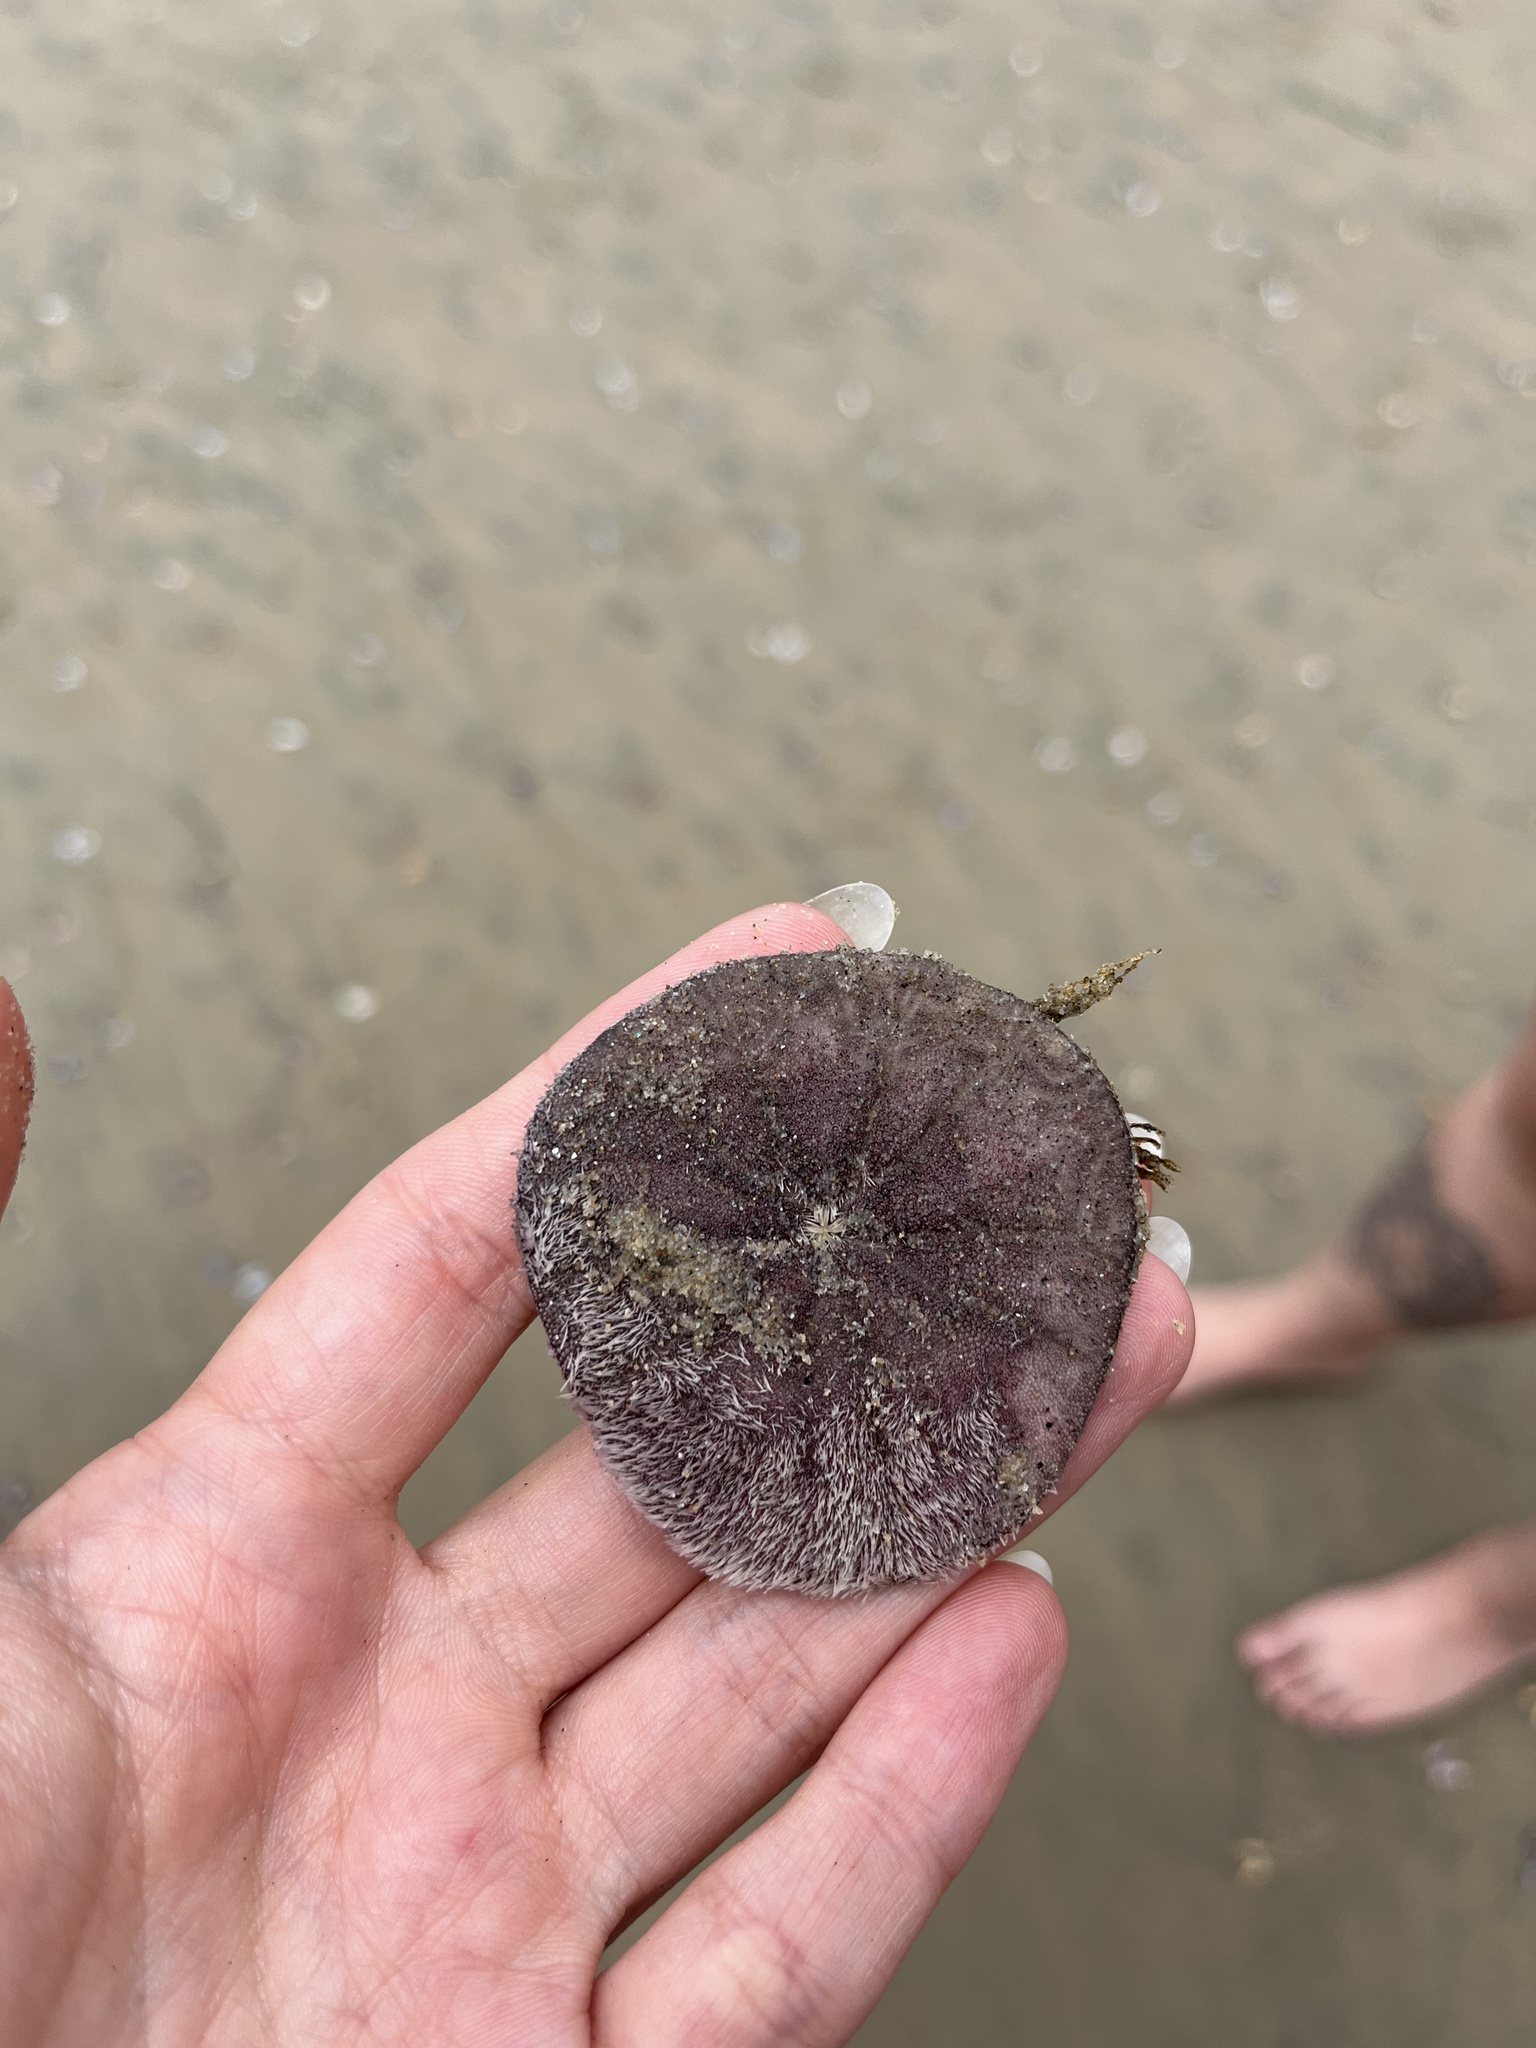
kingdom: Animalia
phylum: Echinodermata
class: Echinoidea
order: Echinolampadacea
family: Dendrasteridae
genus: Dendraster
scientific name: Dendraster excentricus
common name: Eccentric sand dollar sea urchin
